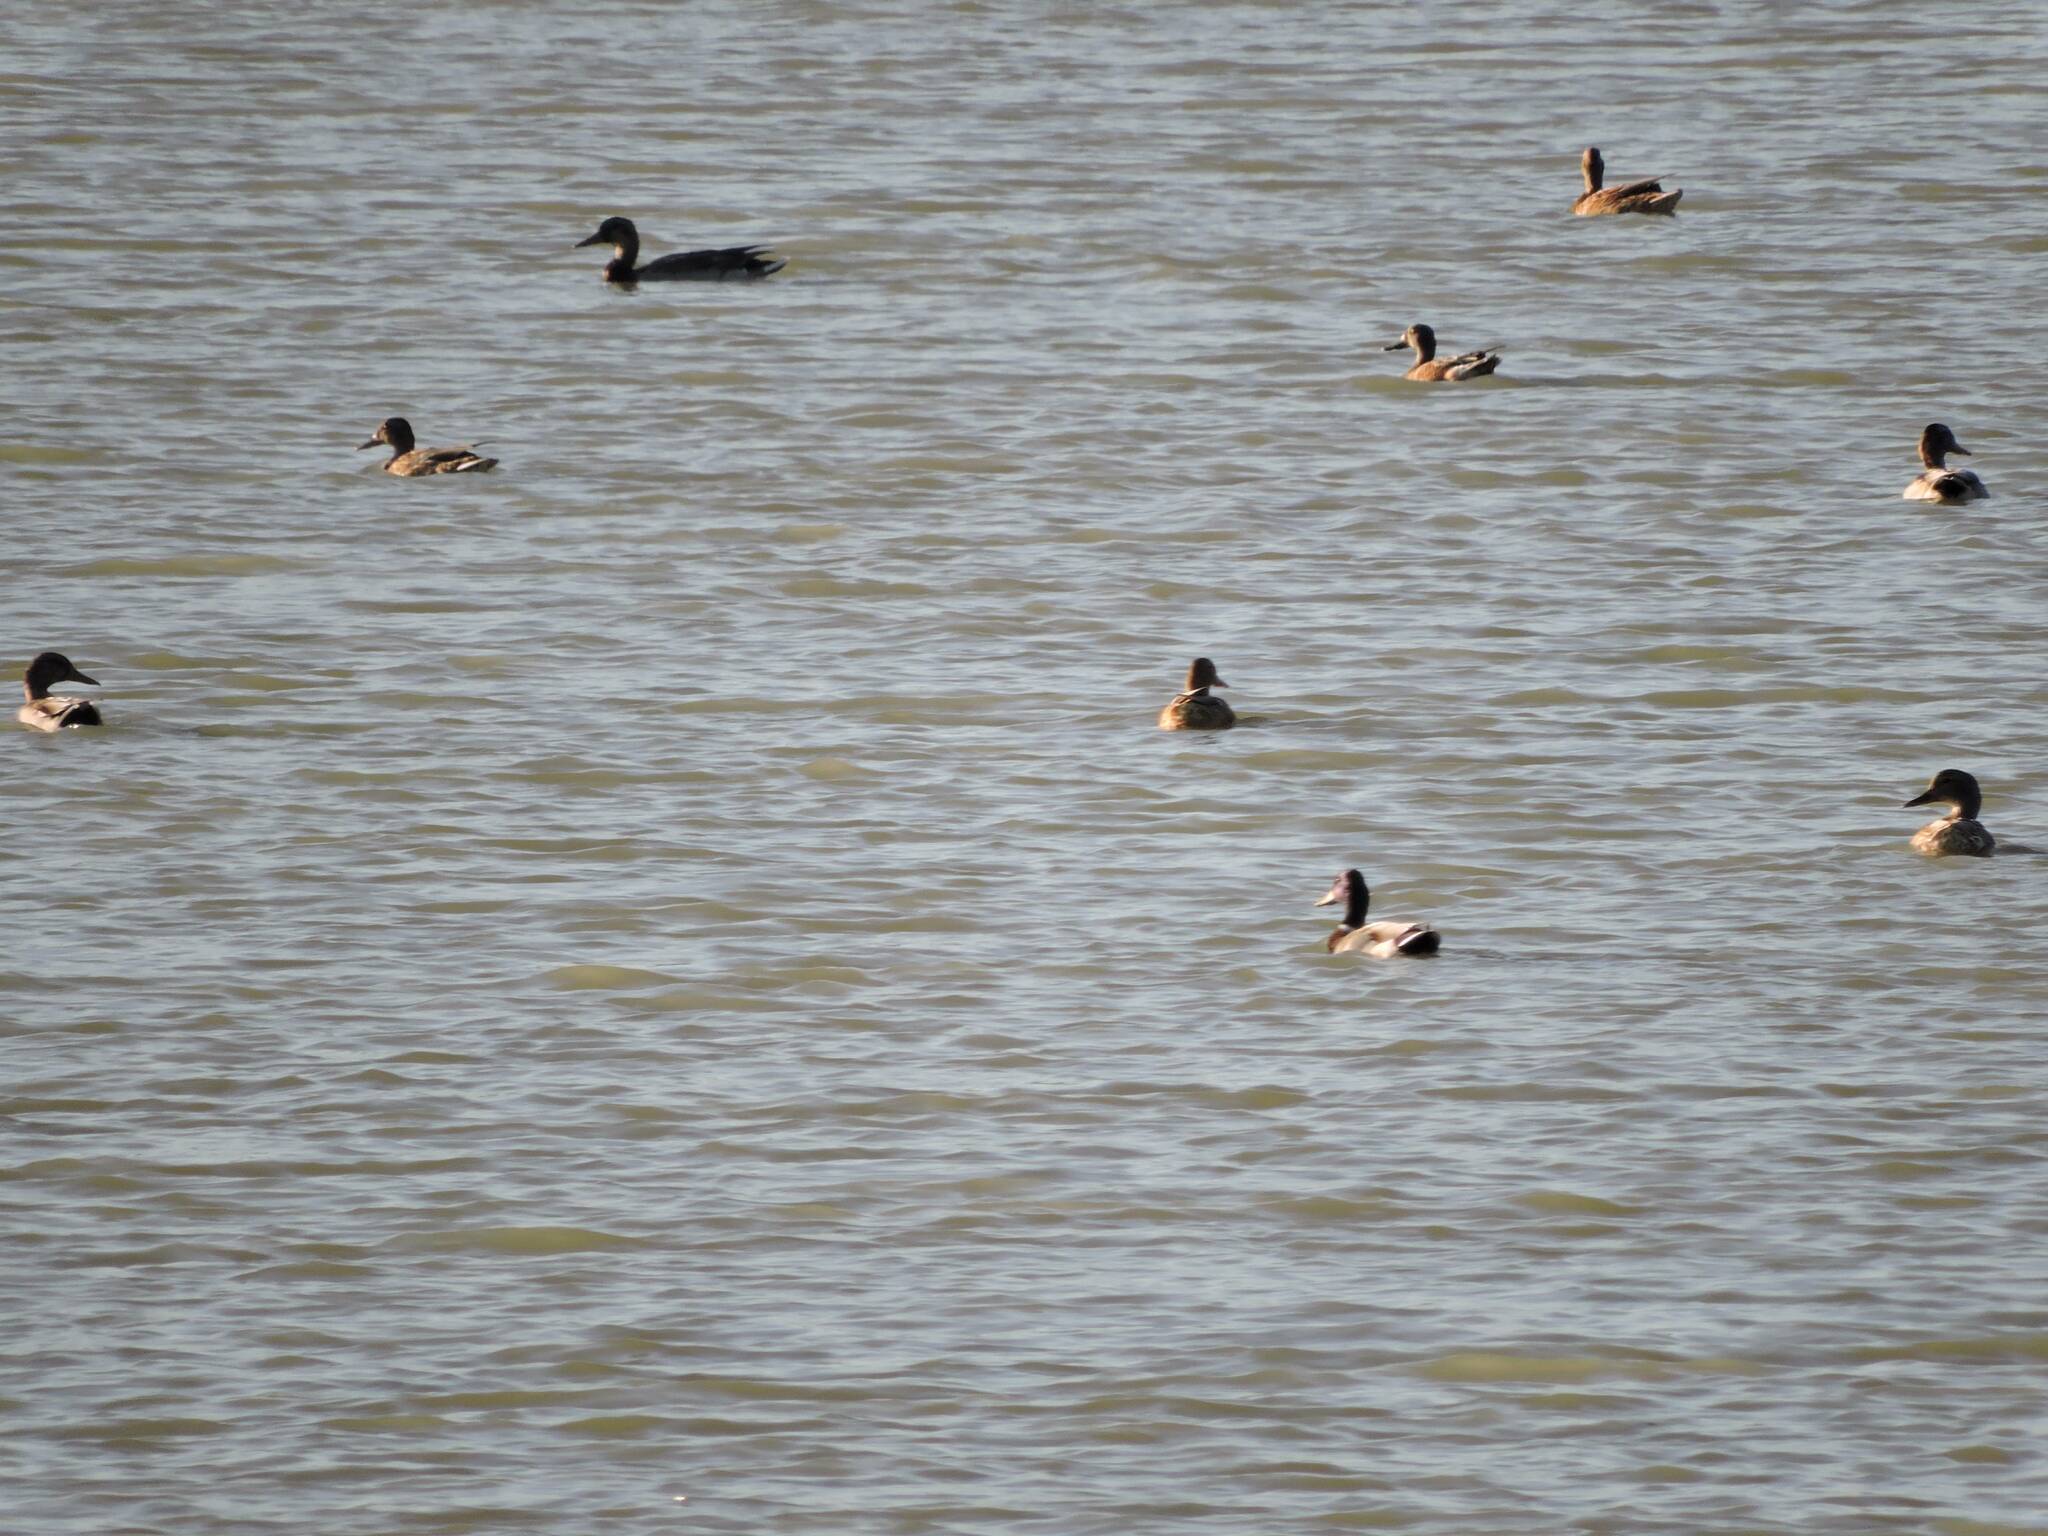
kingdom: Animalia
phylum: Chordata
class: Aves
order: Anseriformes
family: Anatidae
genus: Spatula
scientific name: Spatula clypeata
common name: Northern shoveler
